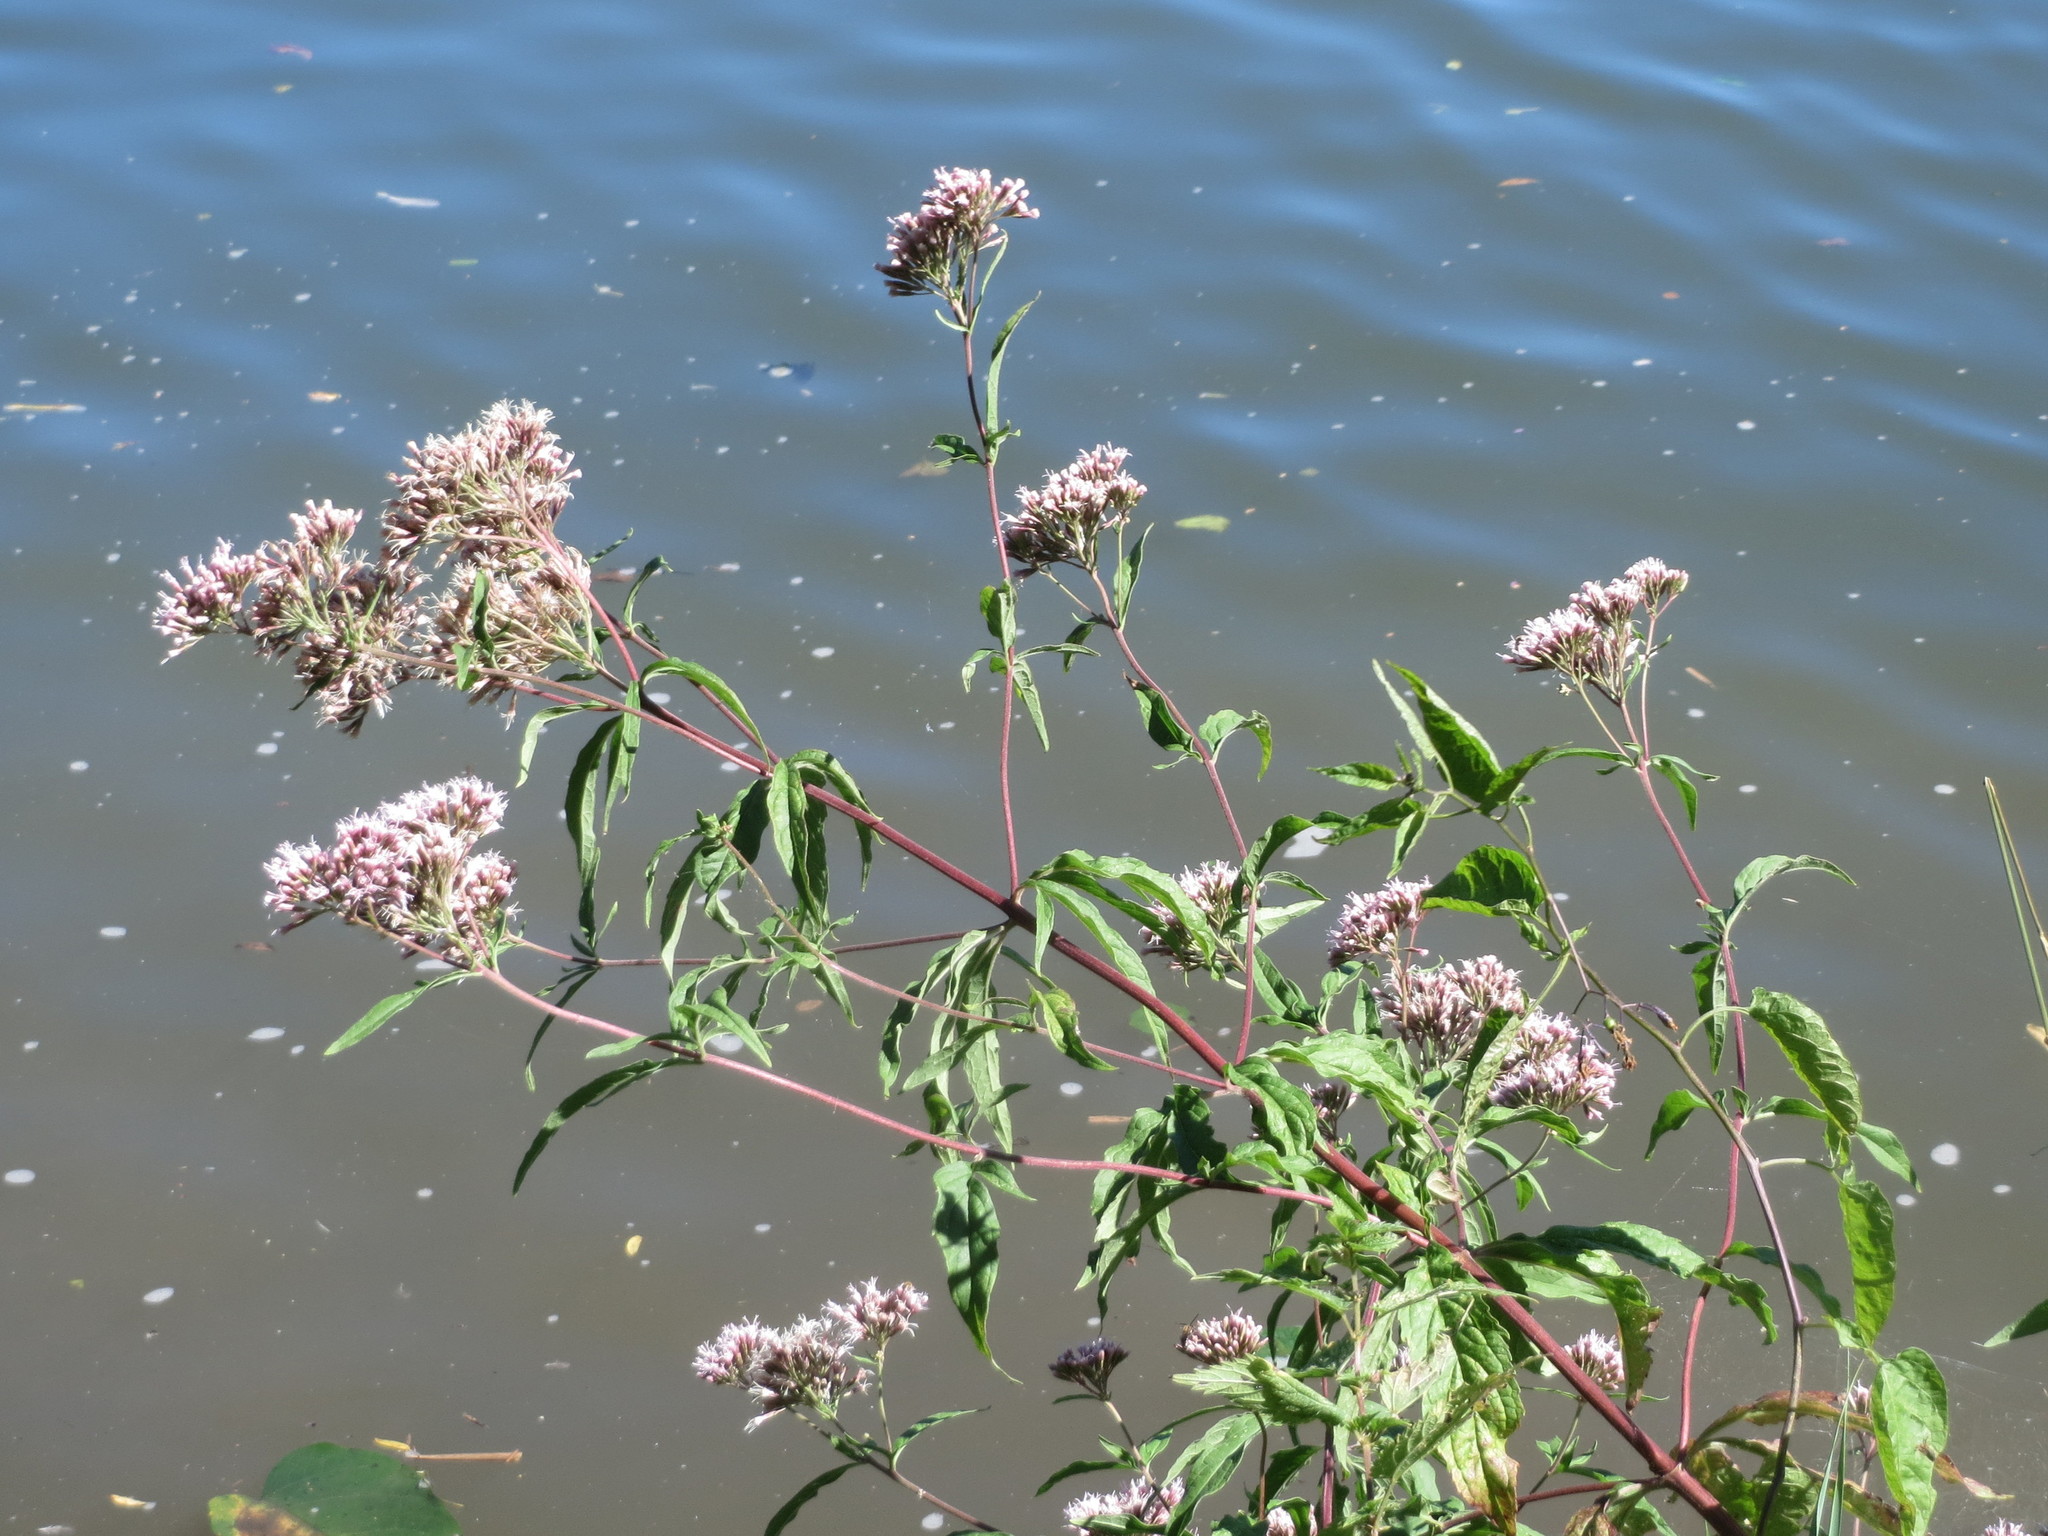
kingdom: Plantae
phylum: Tracheophyta
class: Magnoliopsida
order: Asterales
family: Asteraceae
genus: Eupatorium
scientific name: Eupatorium cannabinum
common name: Hemp-agrimony
